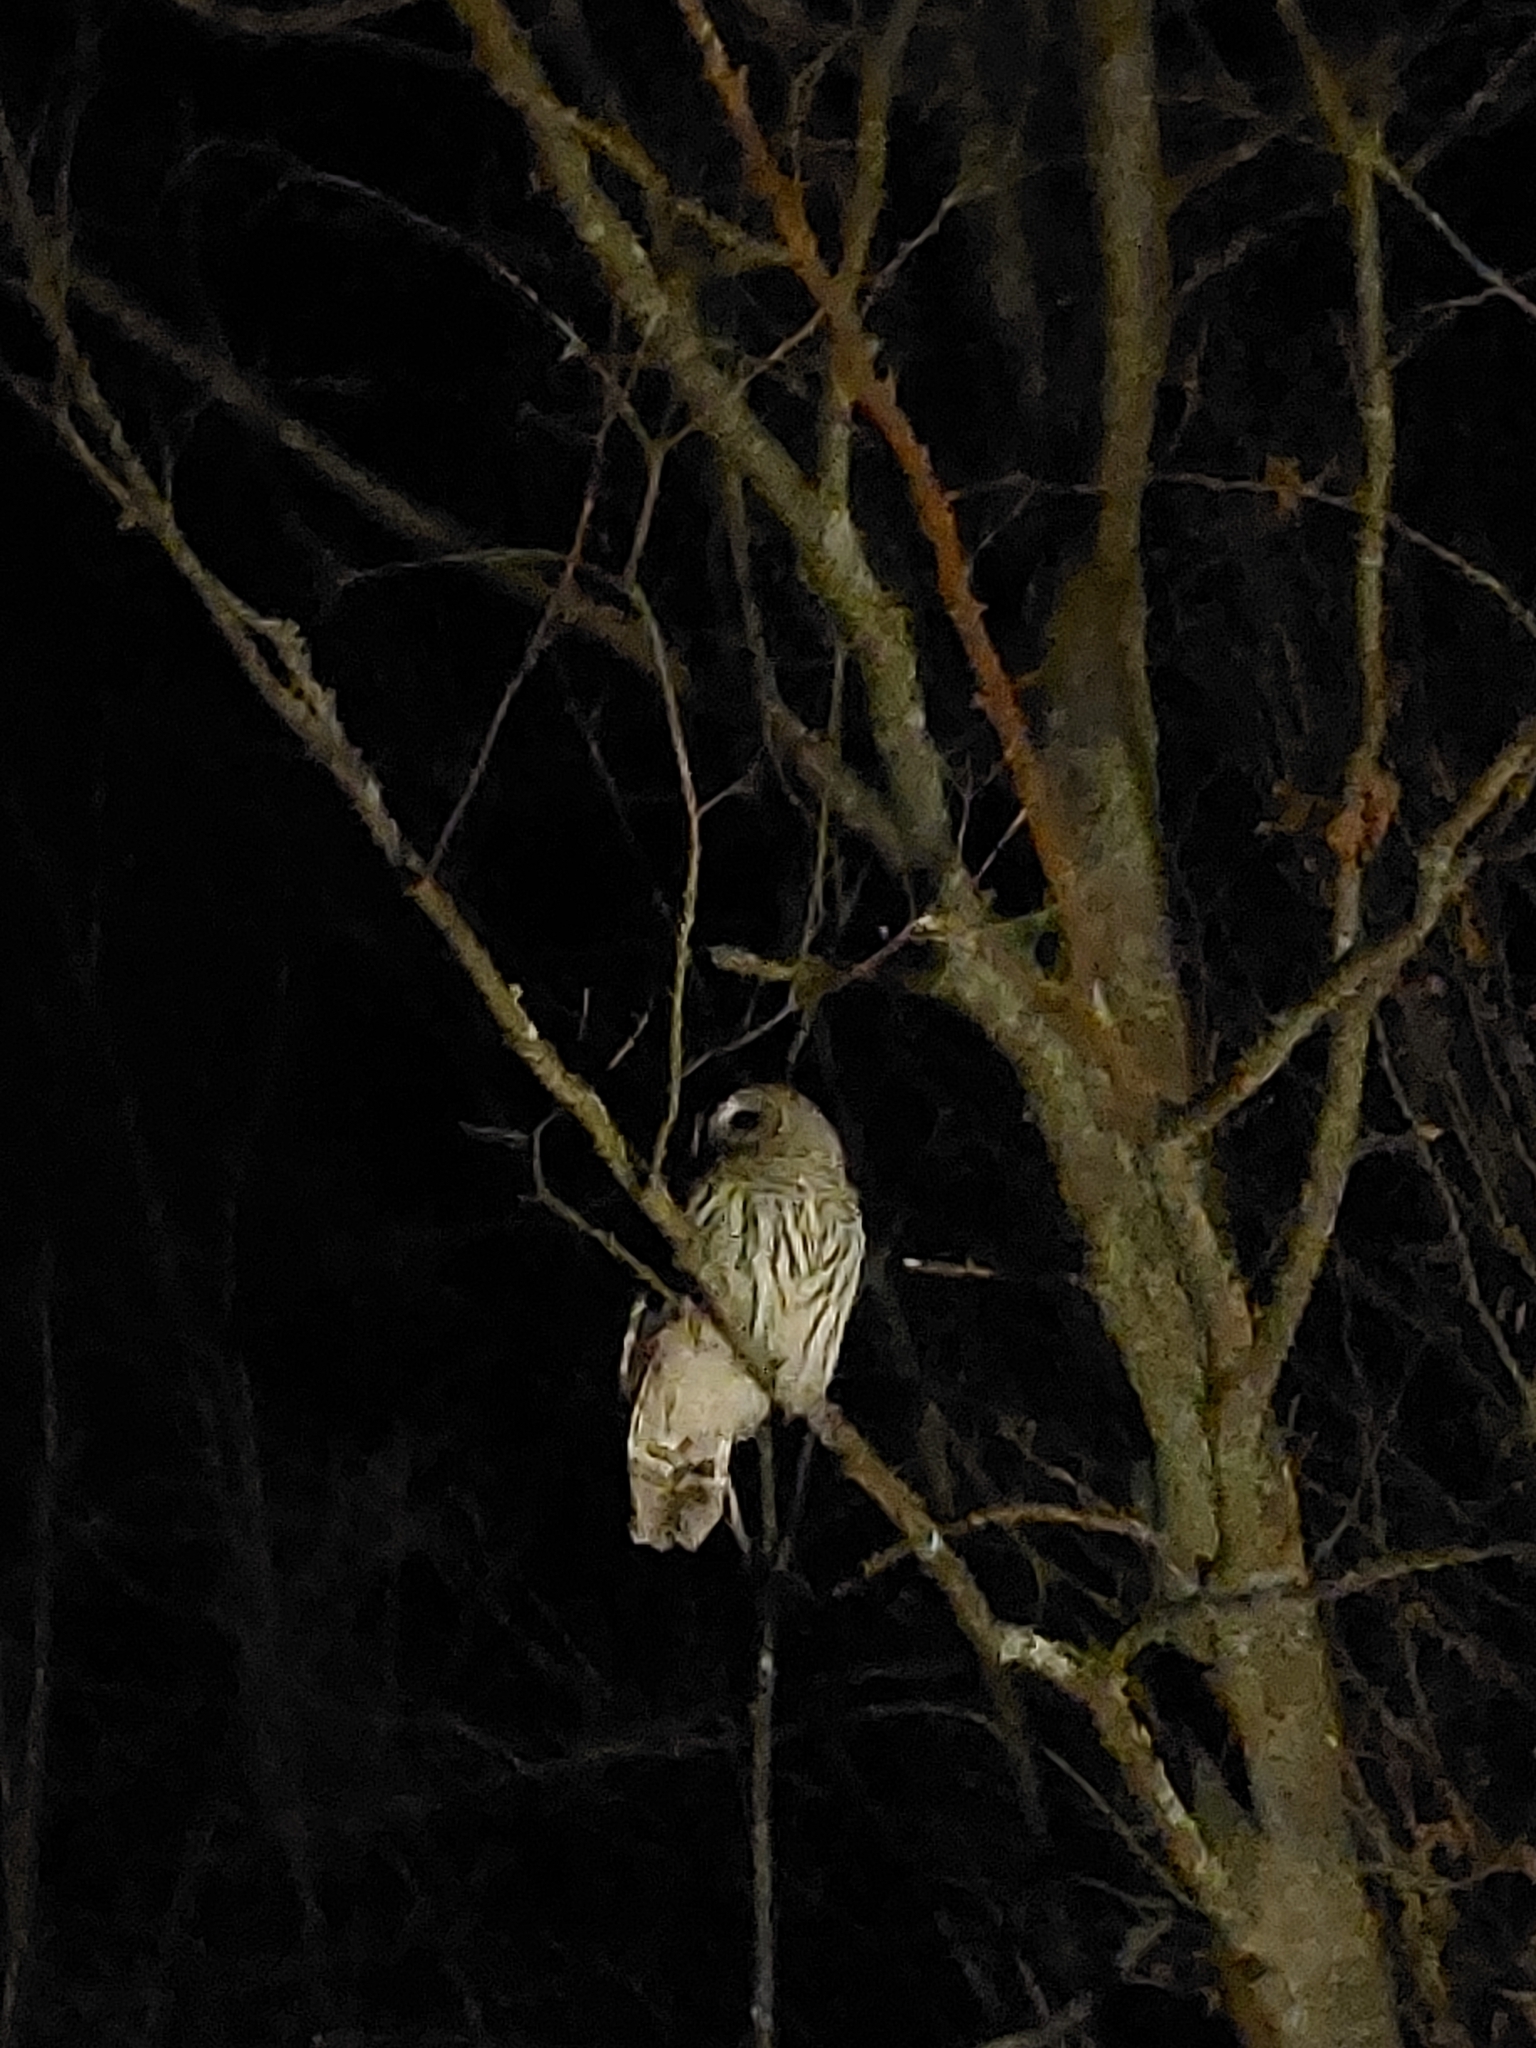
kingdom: Animalia
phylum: Chordata
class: Aves
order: Strigiformes
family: Strigidae
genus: Strix
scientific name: Strix varia
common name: Barred owl
